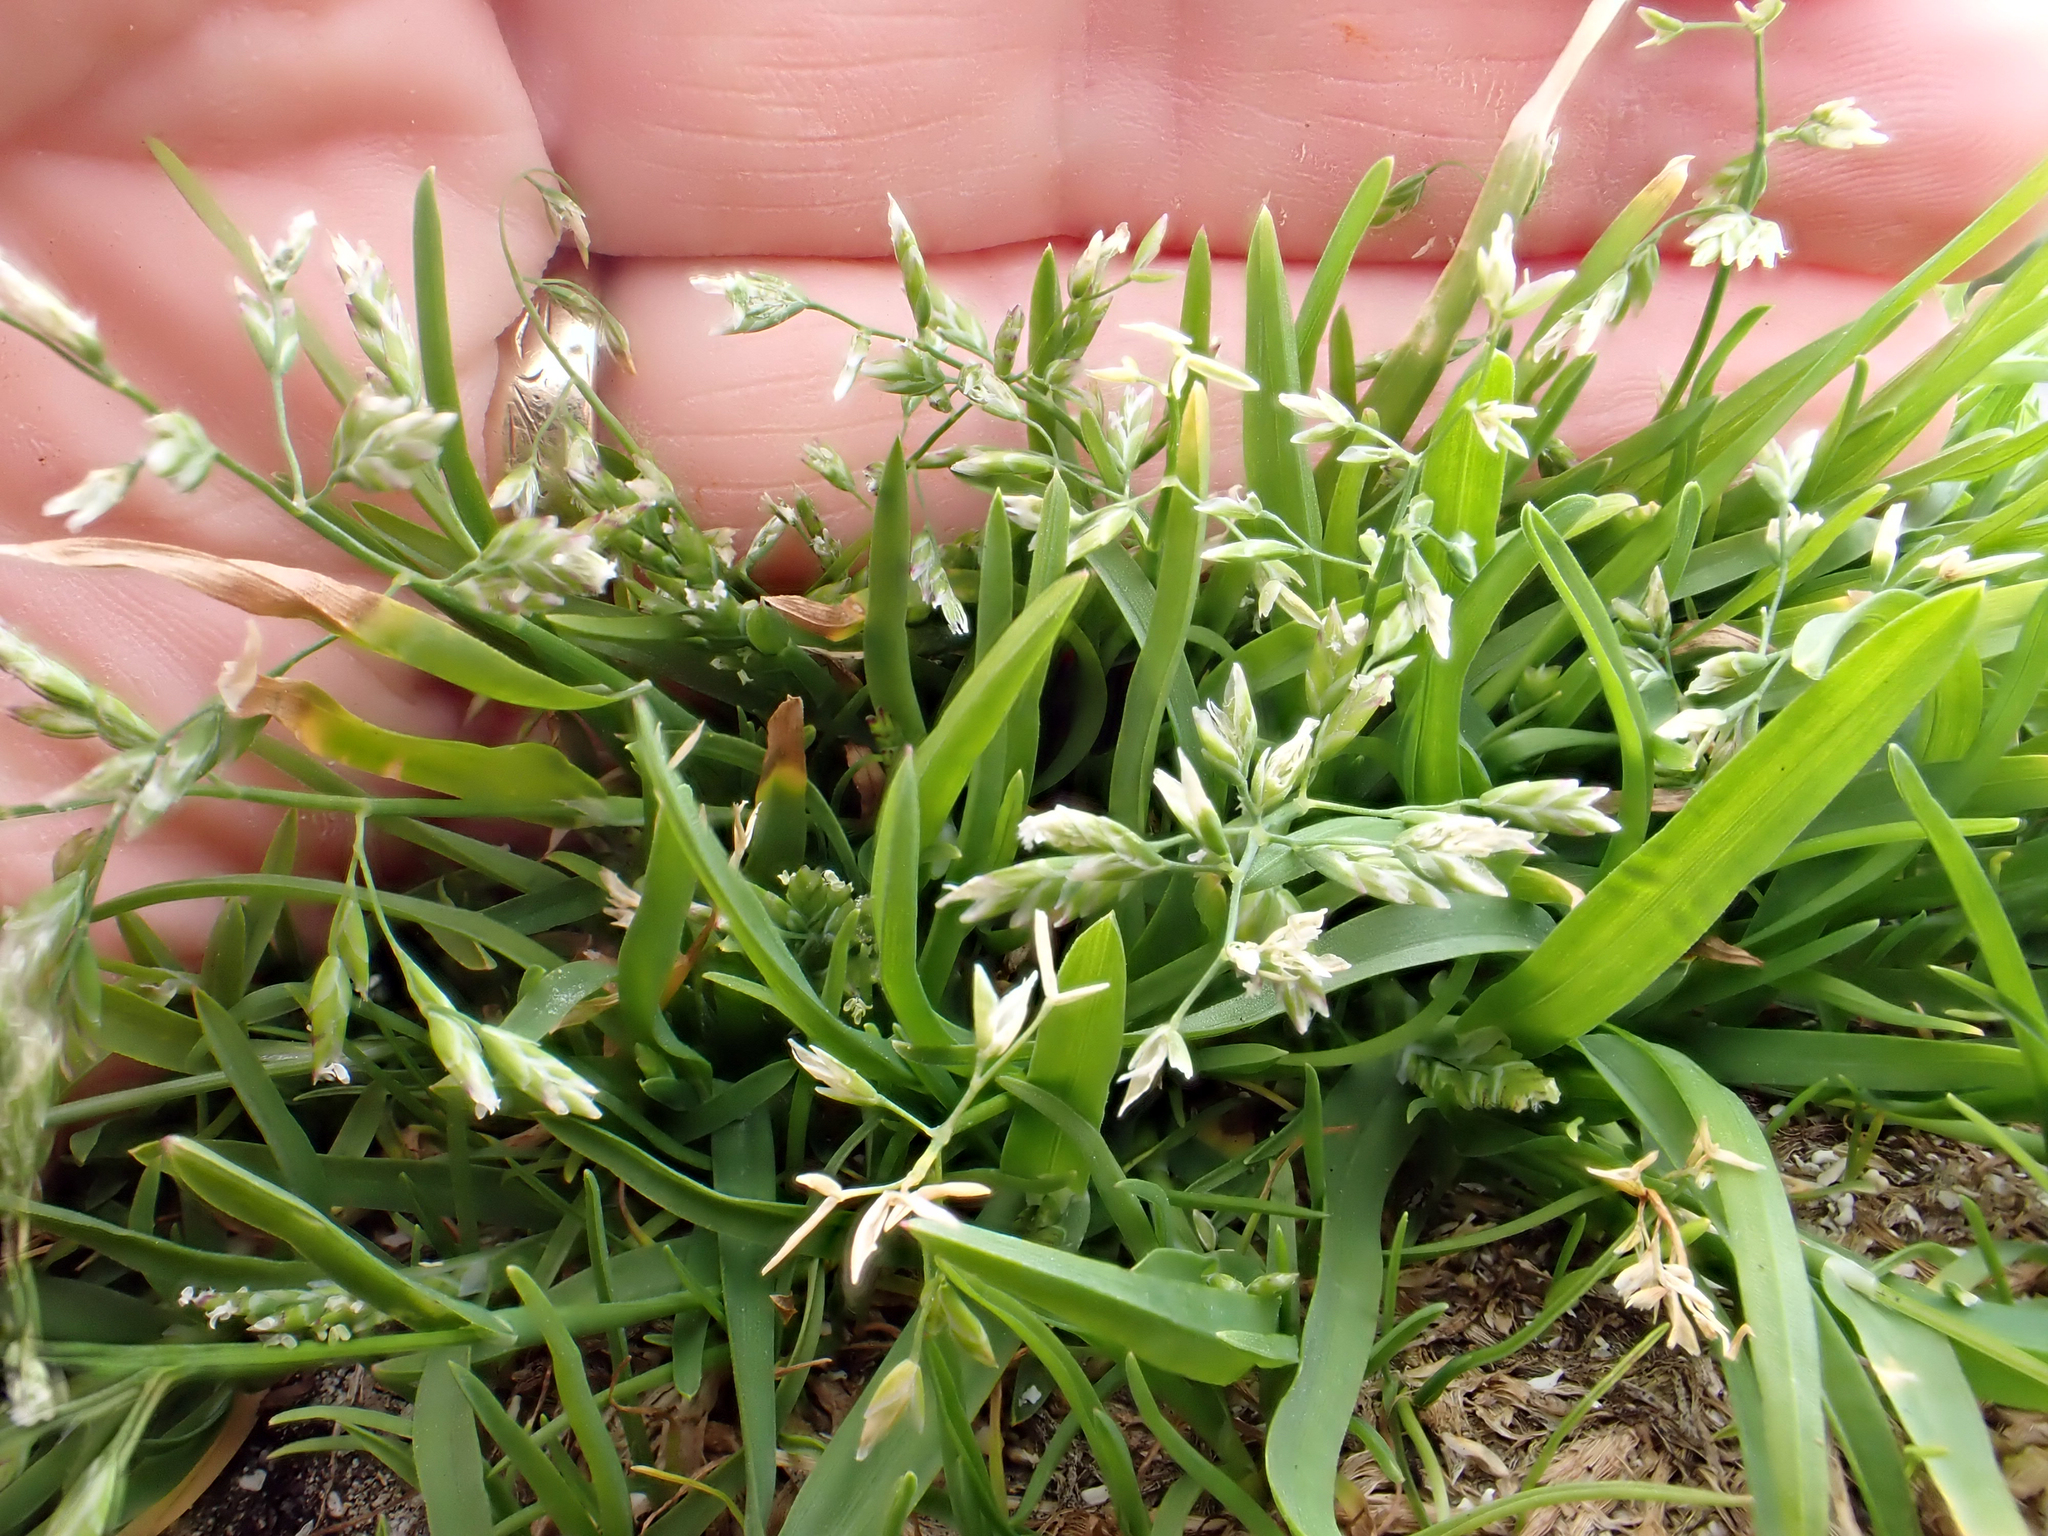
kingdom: Plantae
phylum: Tracheophyta
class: Liliopsida
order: Poales
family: Poaceae
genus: Poa
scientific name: Poa annua
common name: Annual bluegrass
